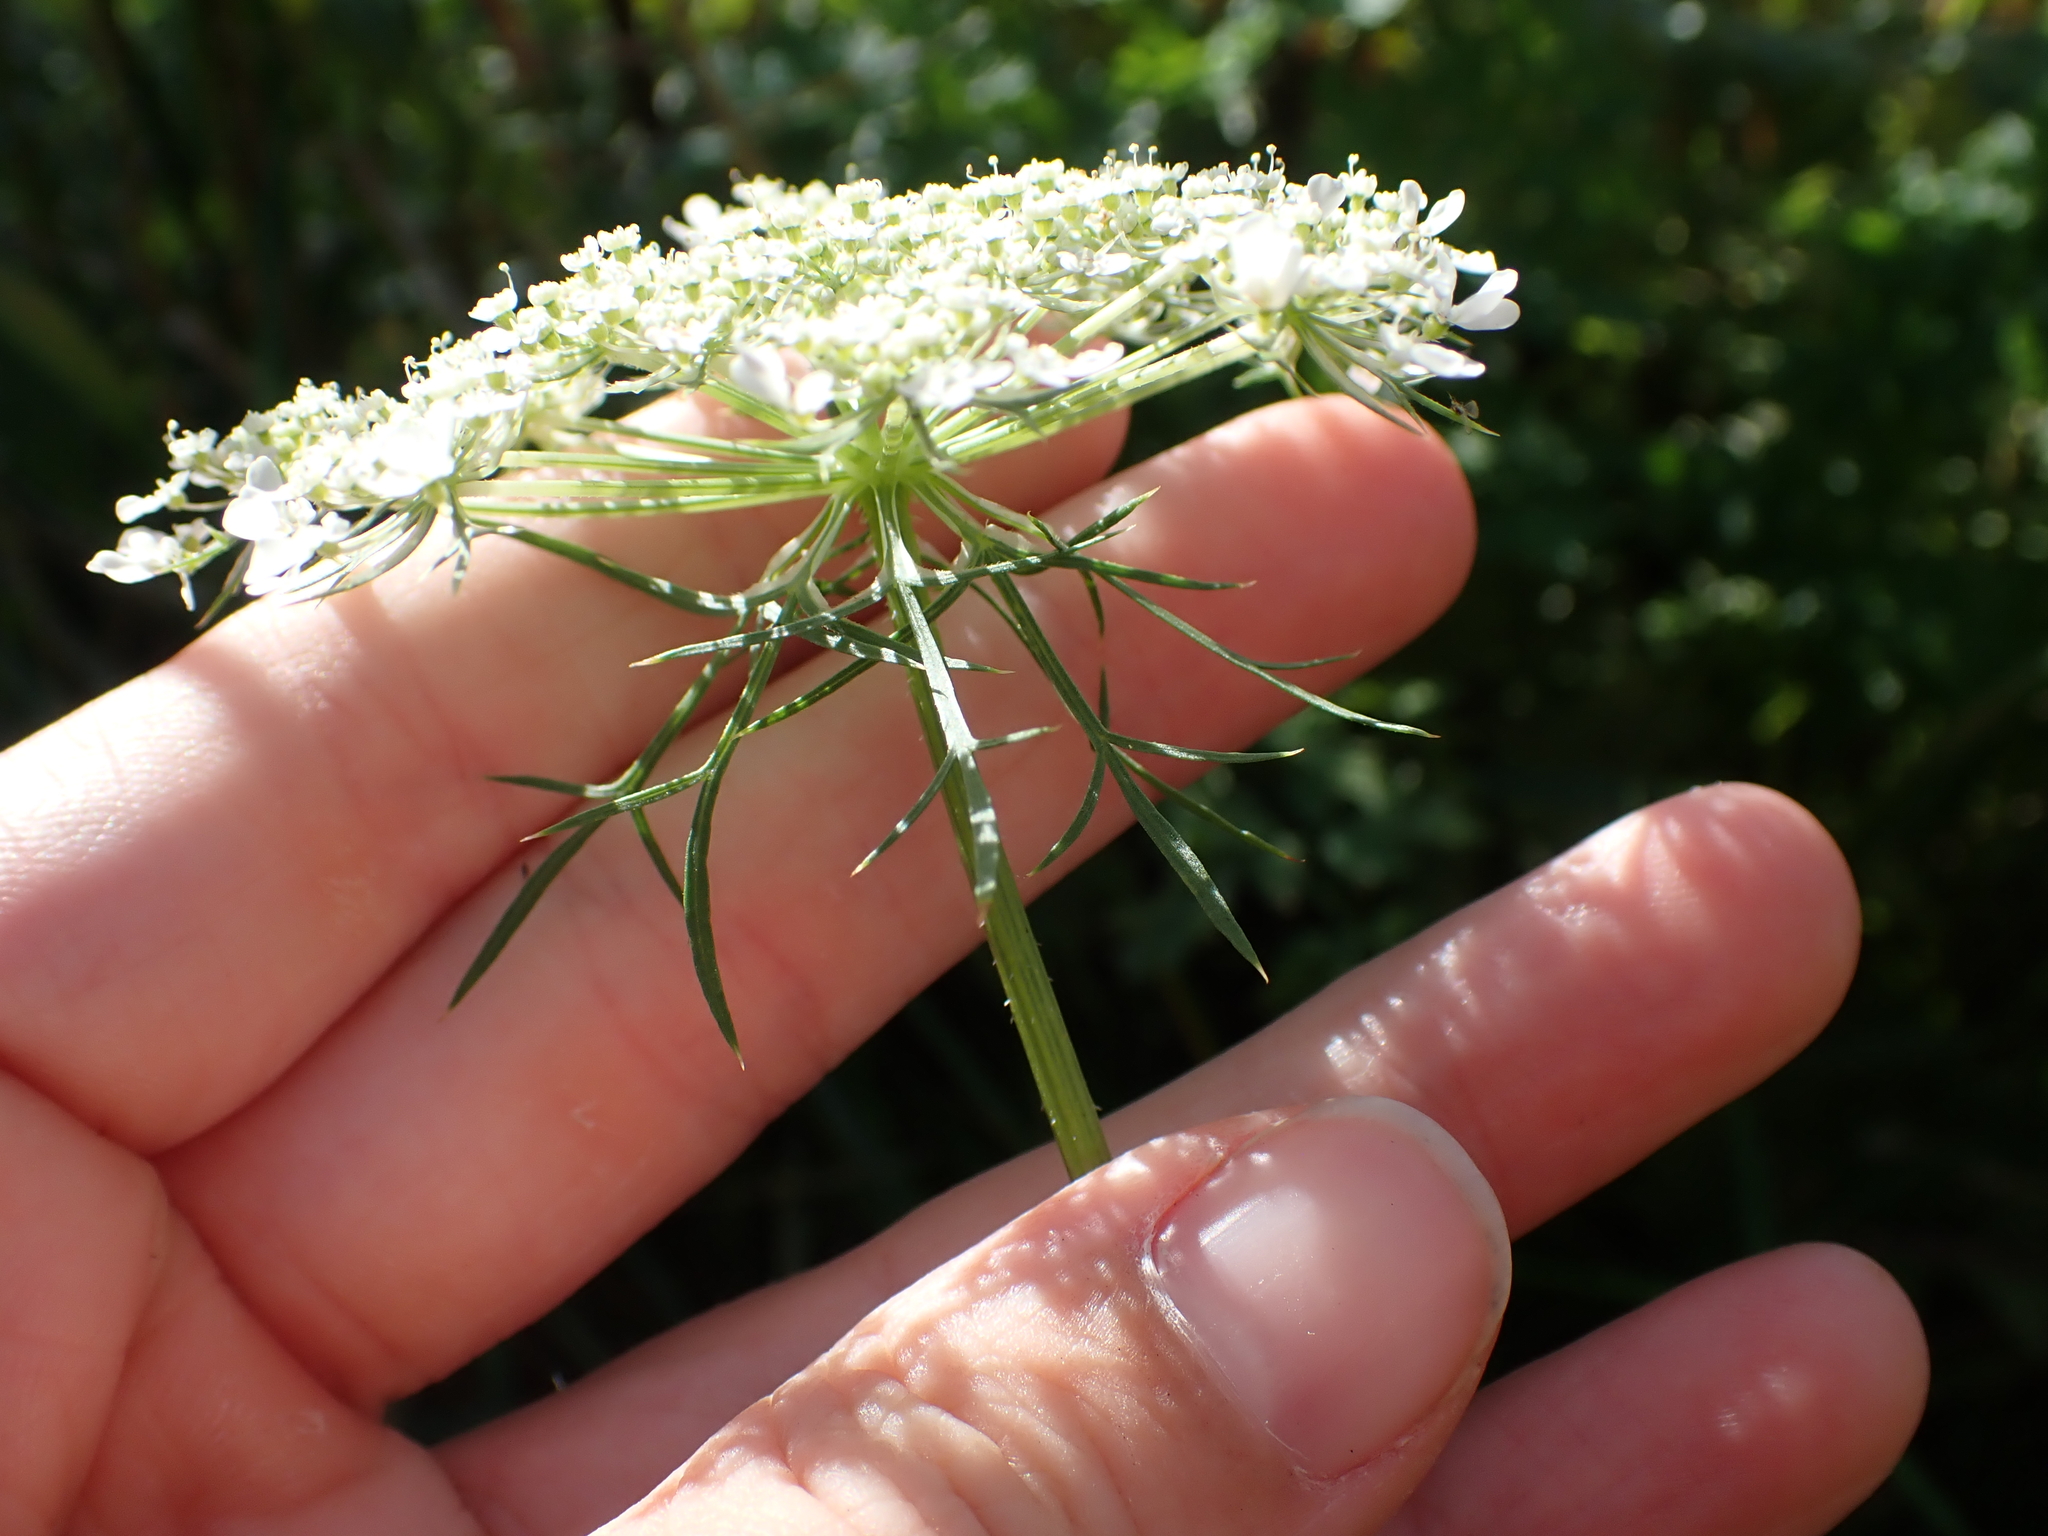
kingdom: Plantae
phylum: Tracheophyta
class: Magnoliopsida
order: Apiales
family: Apiaceae
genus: Daucus
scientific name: Daucus carota
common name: Wild carrot
